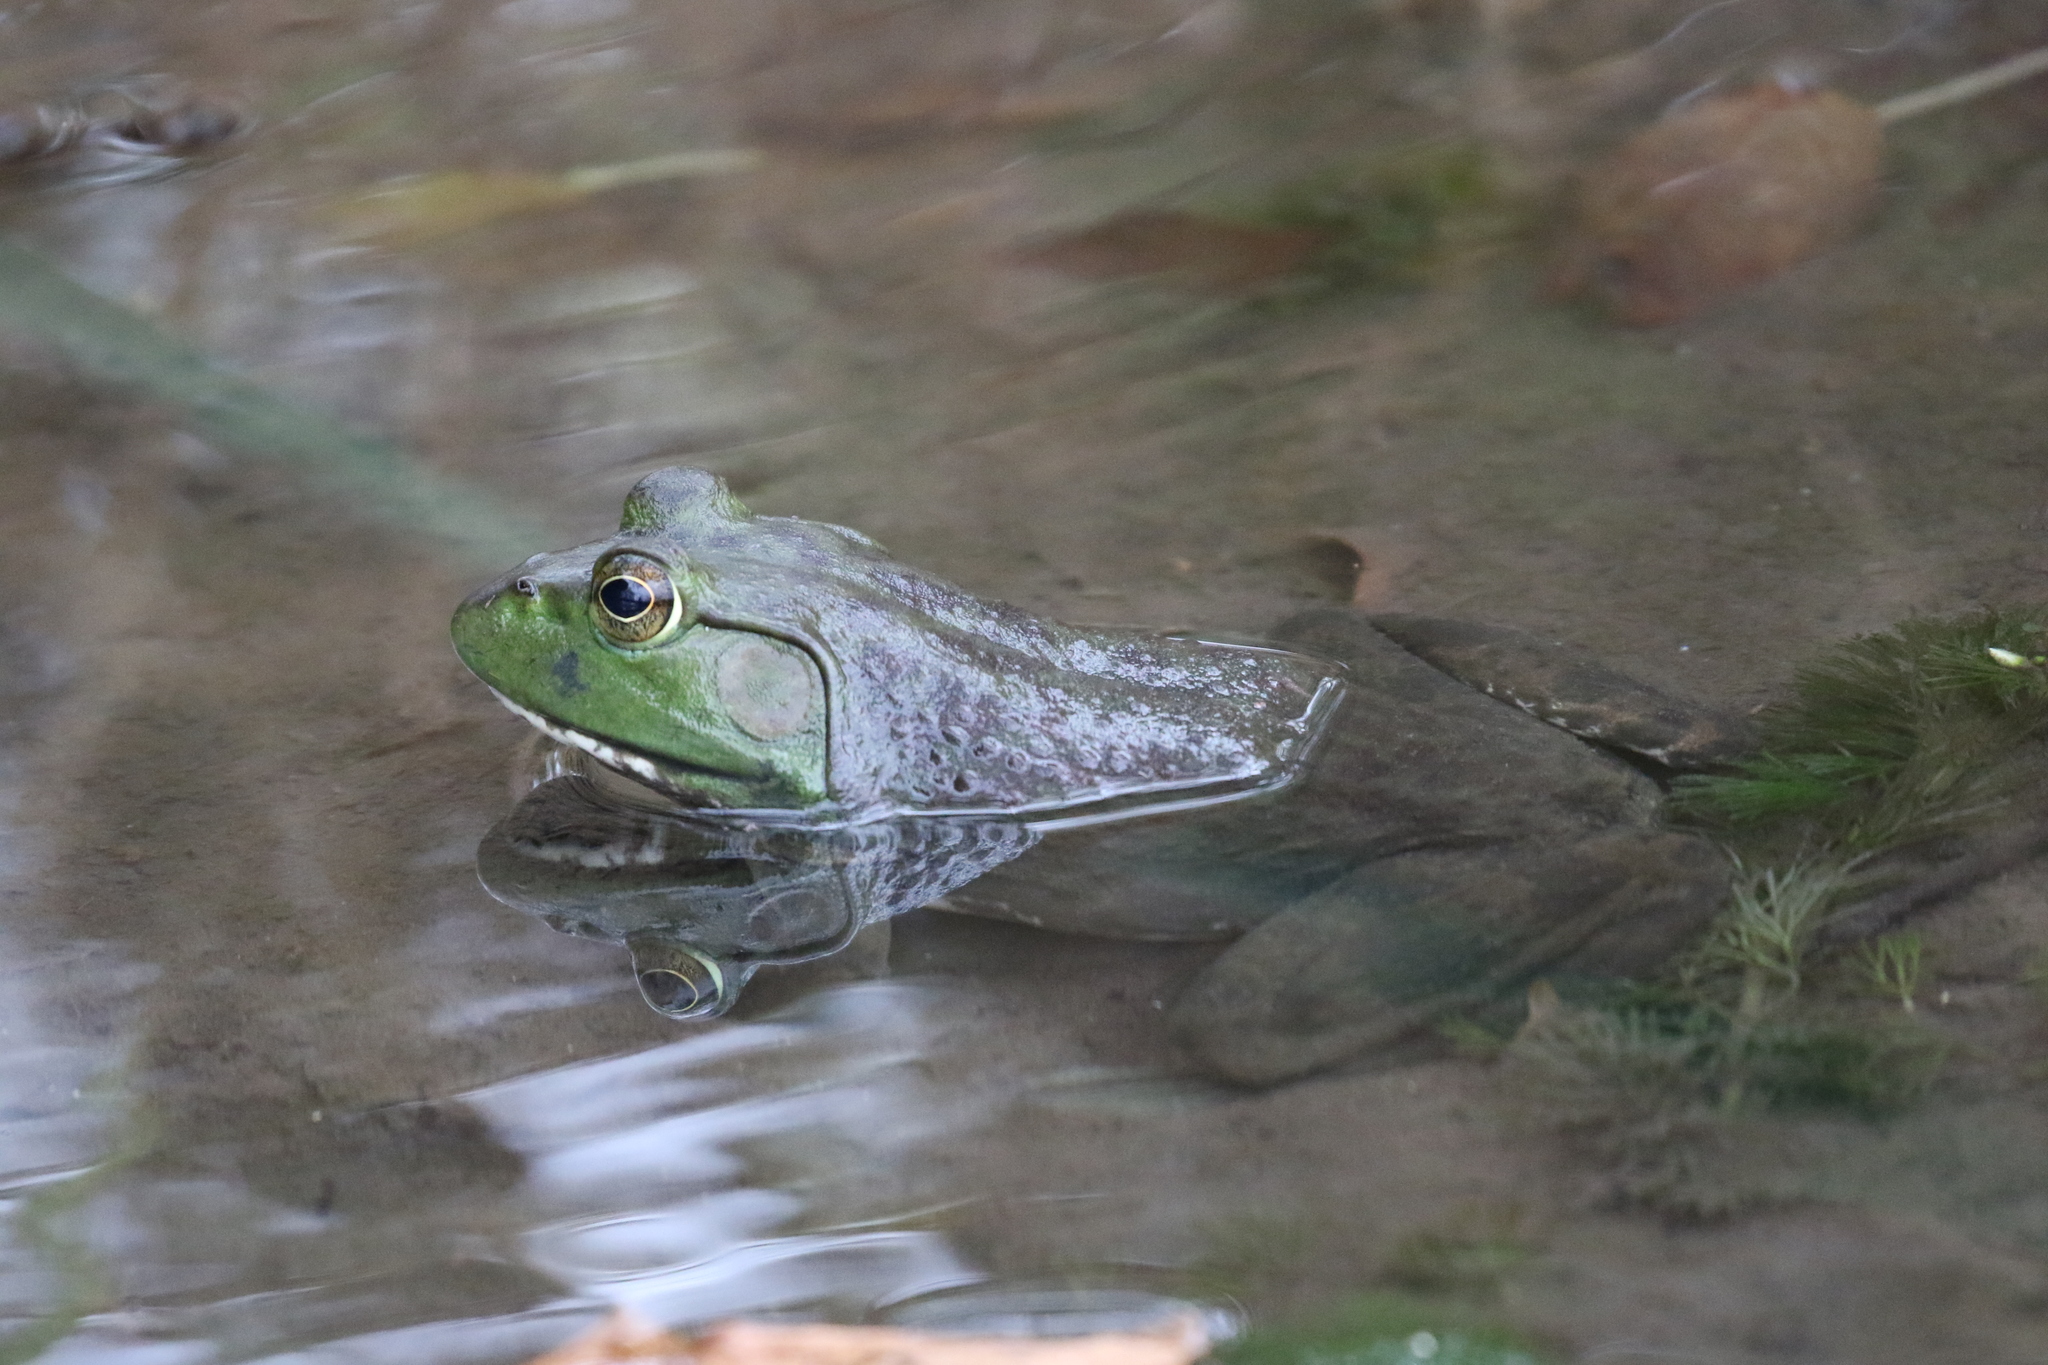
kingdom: Animalia
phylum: Chordata
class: Amphibia
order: Anura
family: Ranidae
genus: Lithobates
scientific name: Lithobates catesbeianus
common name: American bullfrog
